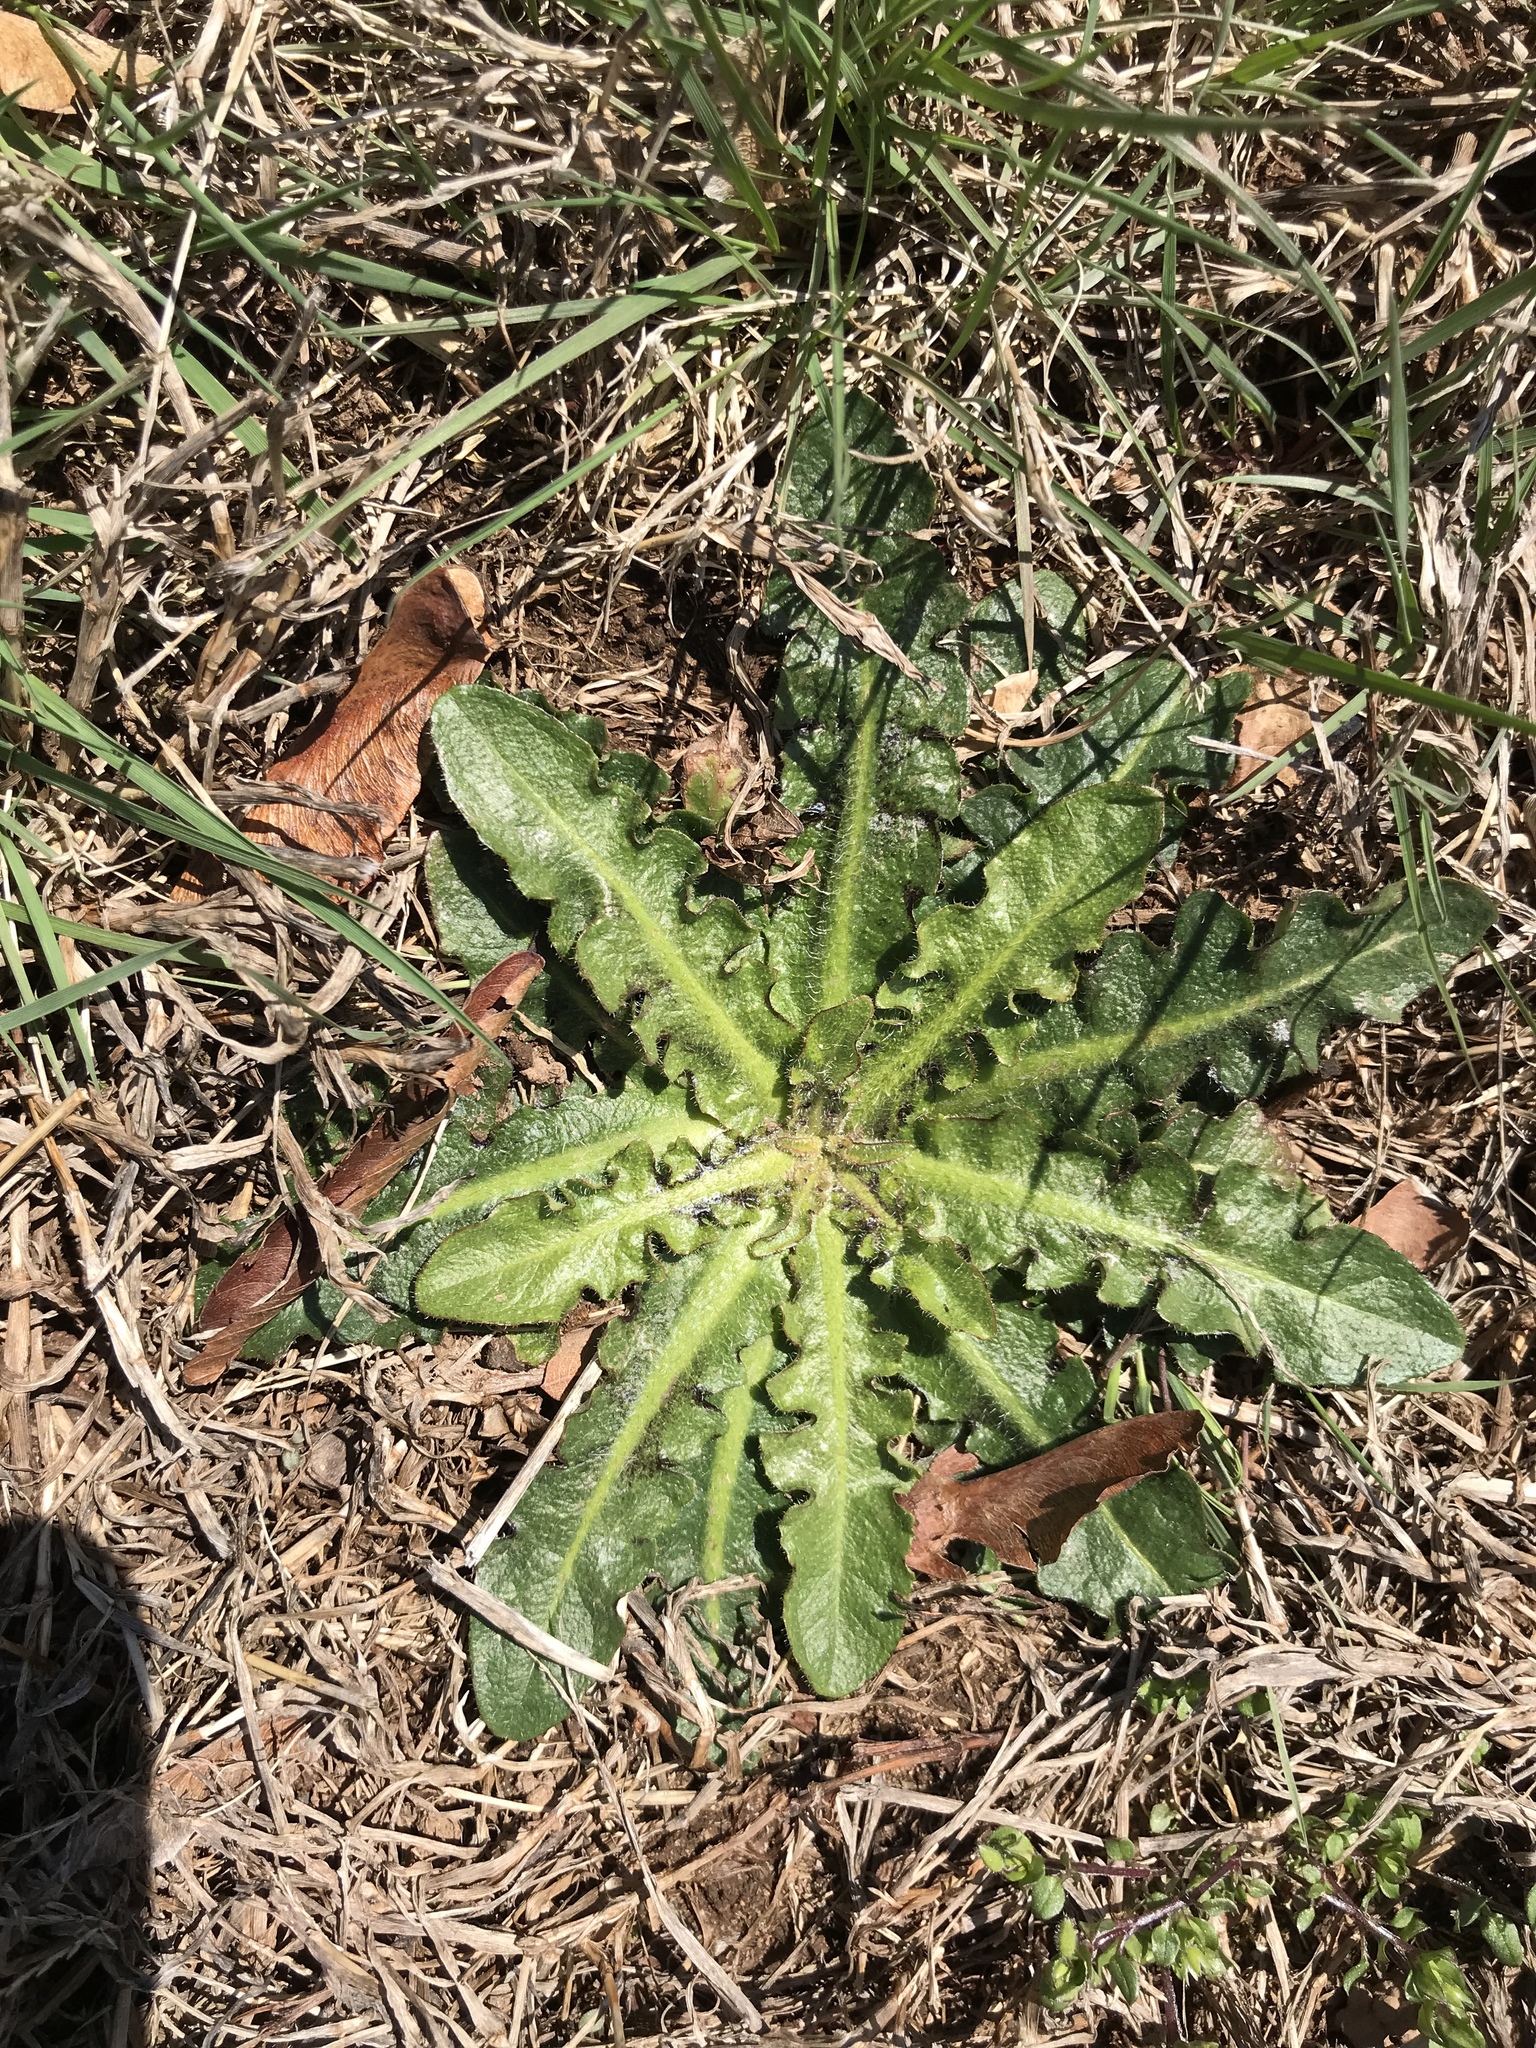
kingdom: Plantae
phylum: Tracheophyta
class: Magnoliopsida
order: Asterales
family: Asteraceae
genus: Hypochaeris
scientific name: Hypochaeris radicata
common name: Flatweed
